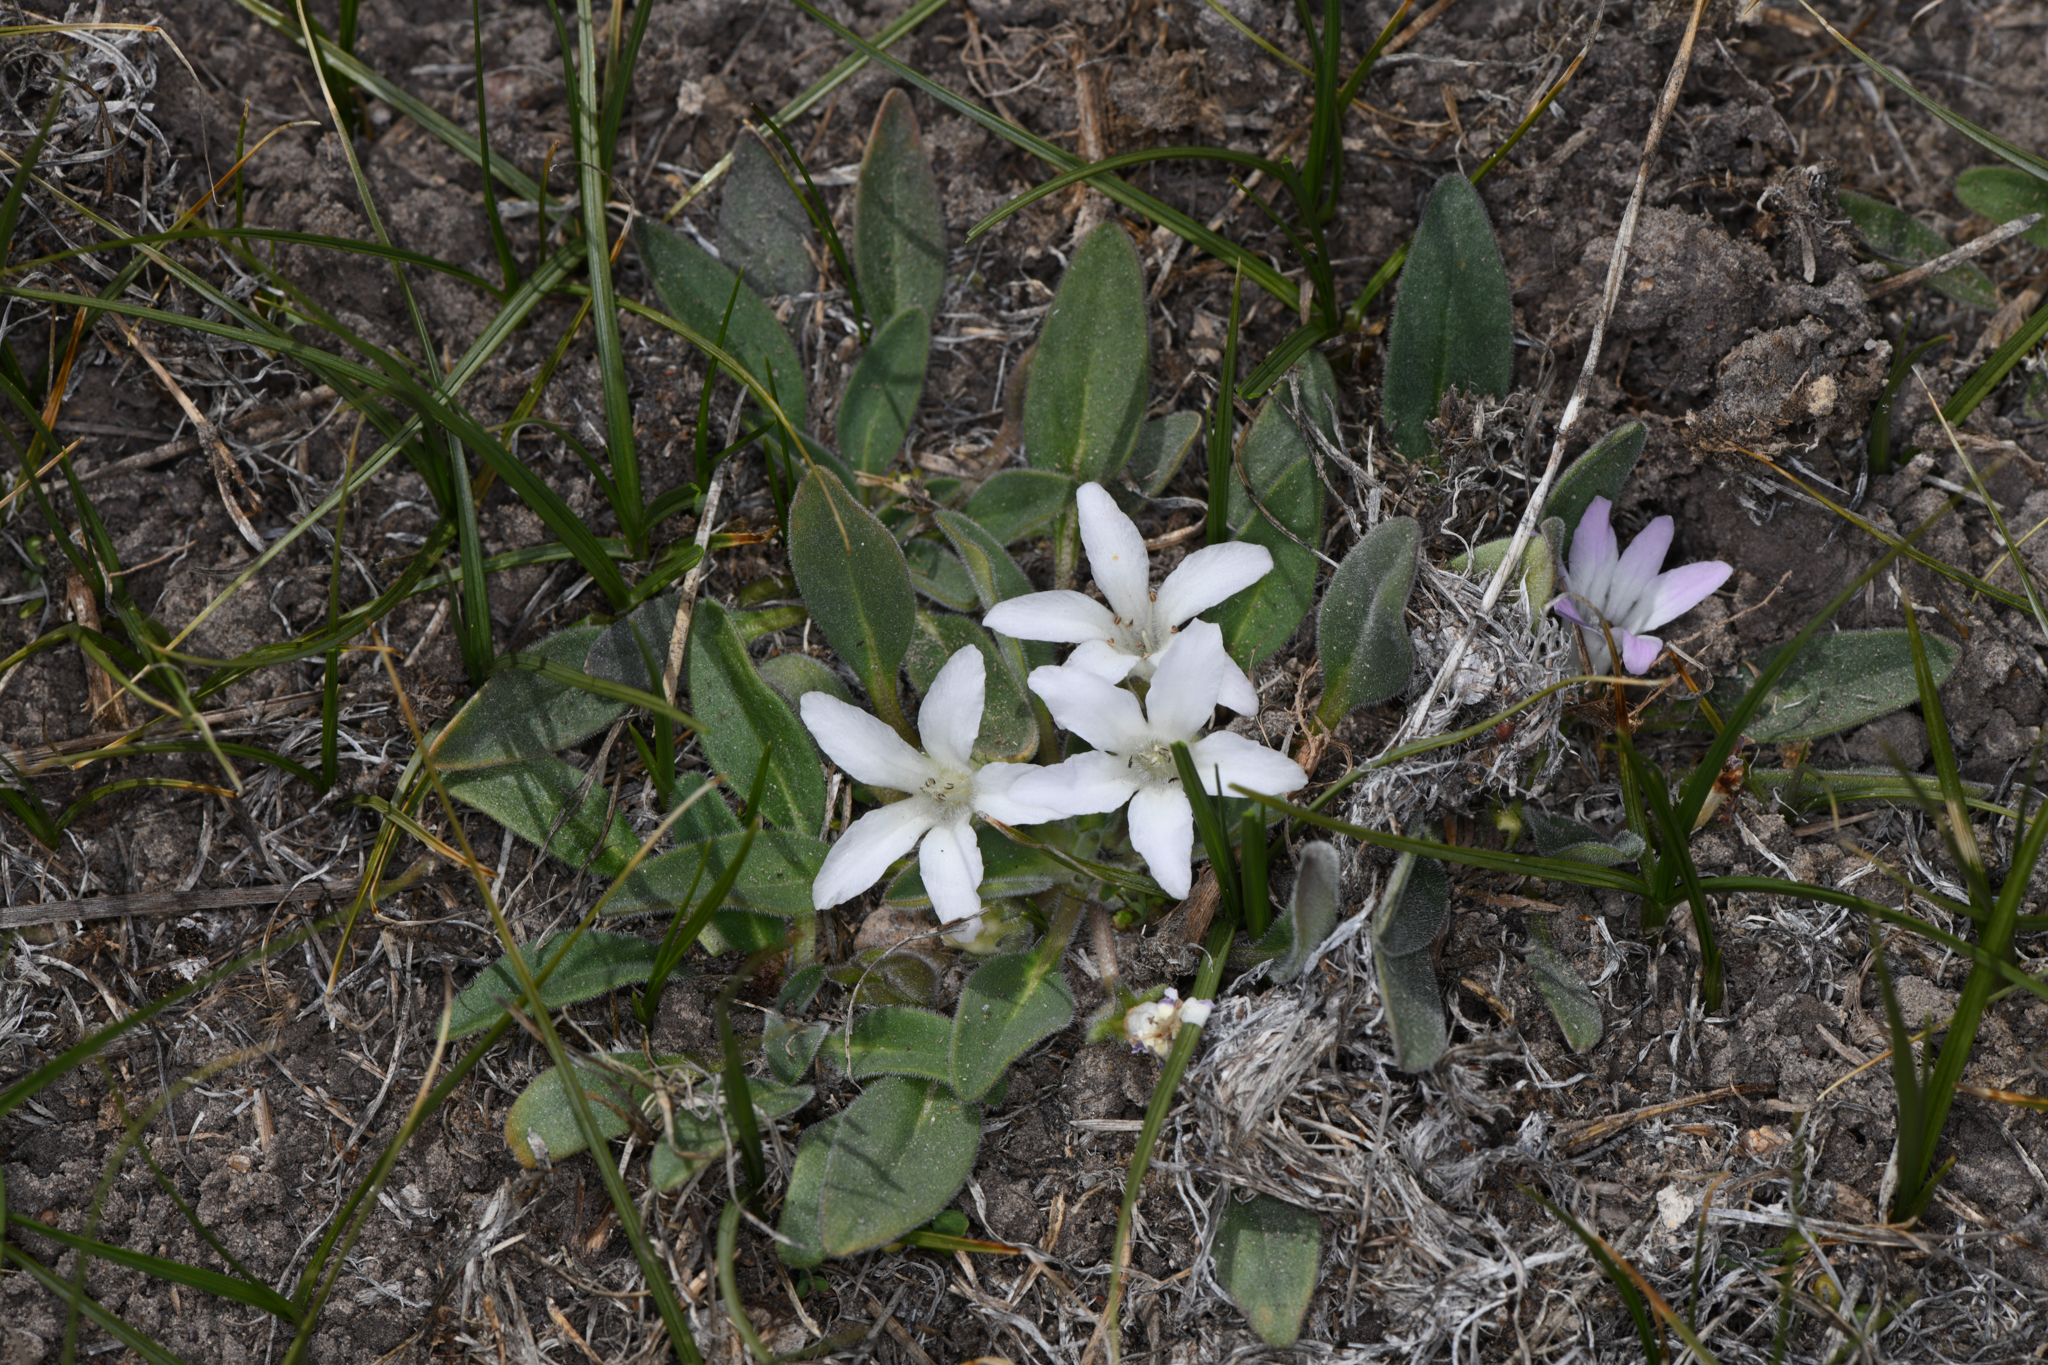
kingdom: Plantae
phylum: Tracheophyta
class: Magnoliopsida
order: Boraginales
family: Hydrophyllaceae
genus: Hesperochiron
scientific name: Hesperochiron californicus
